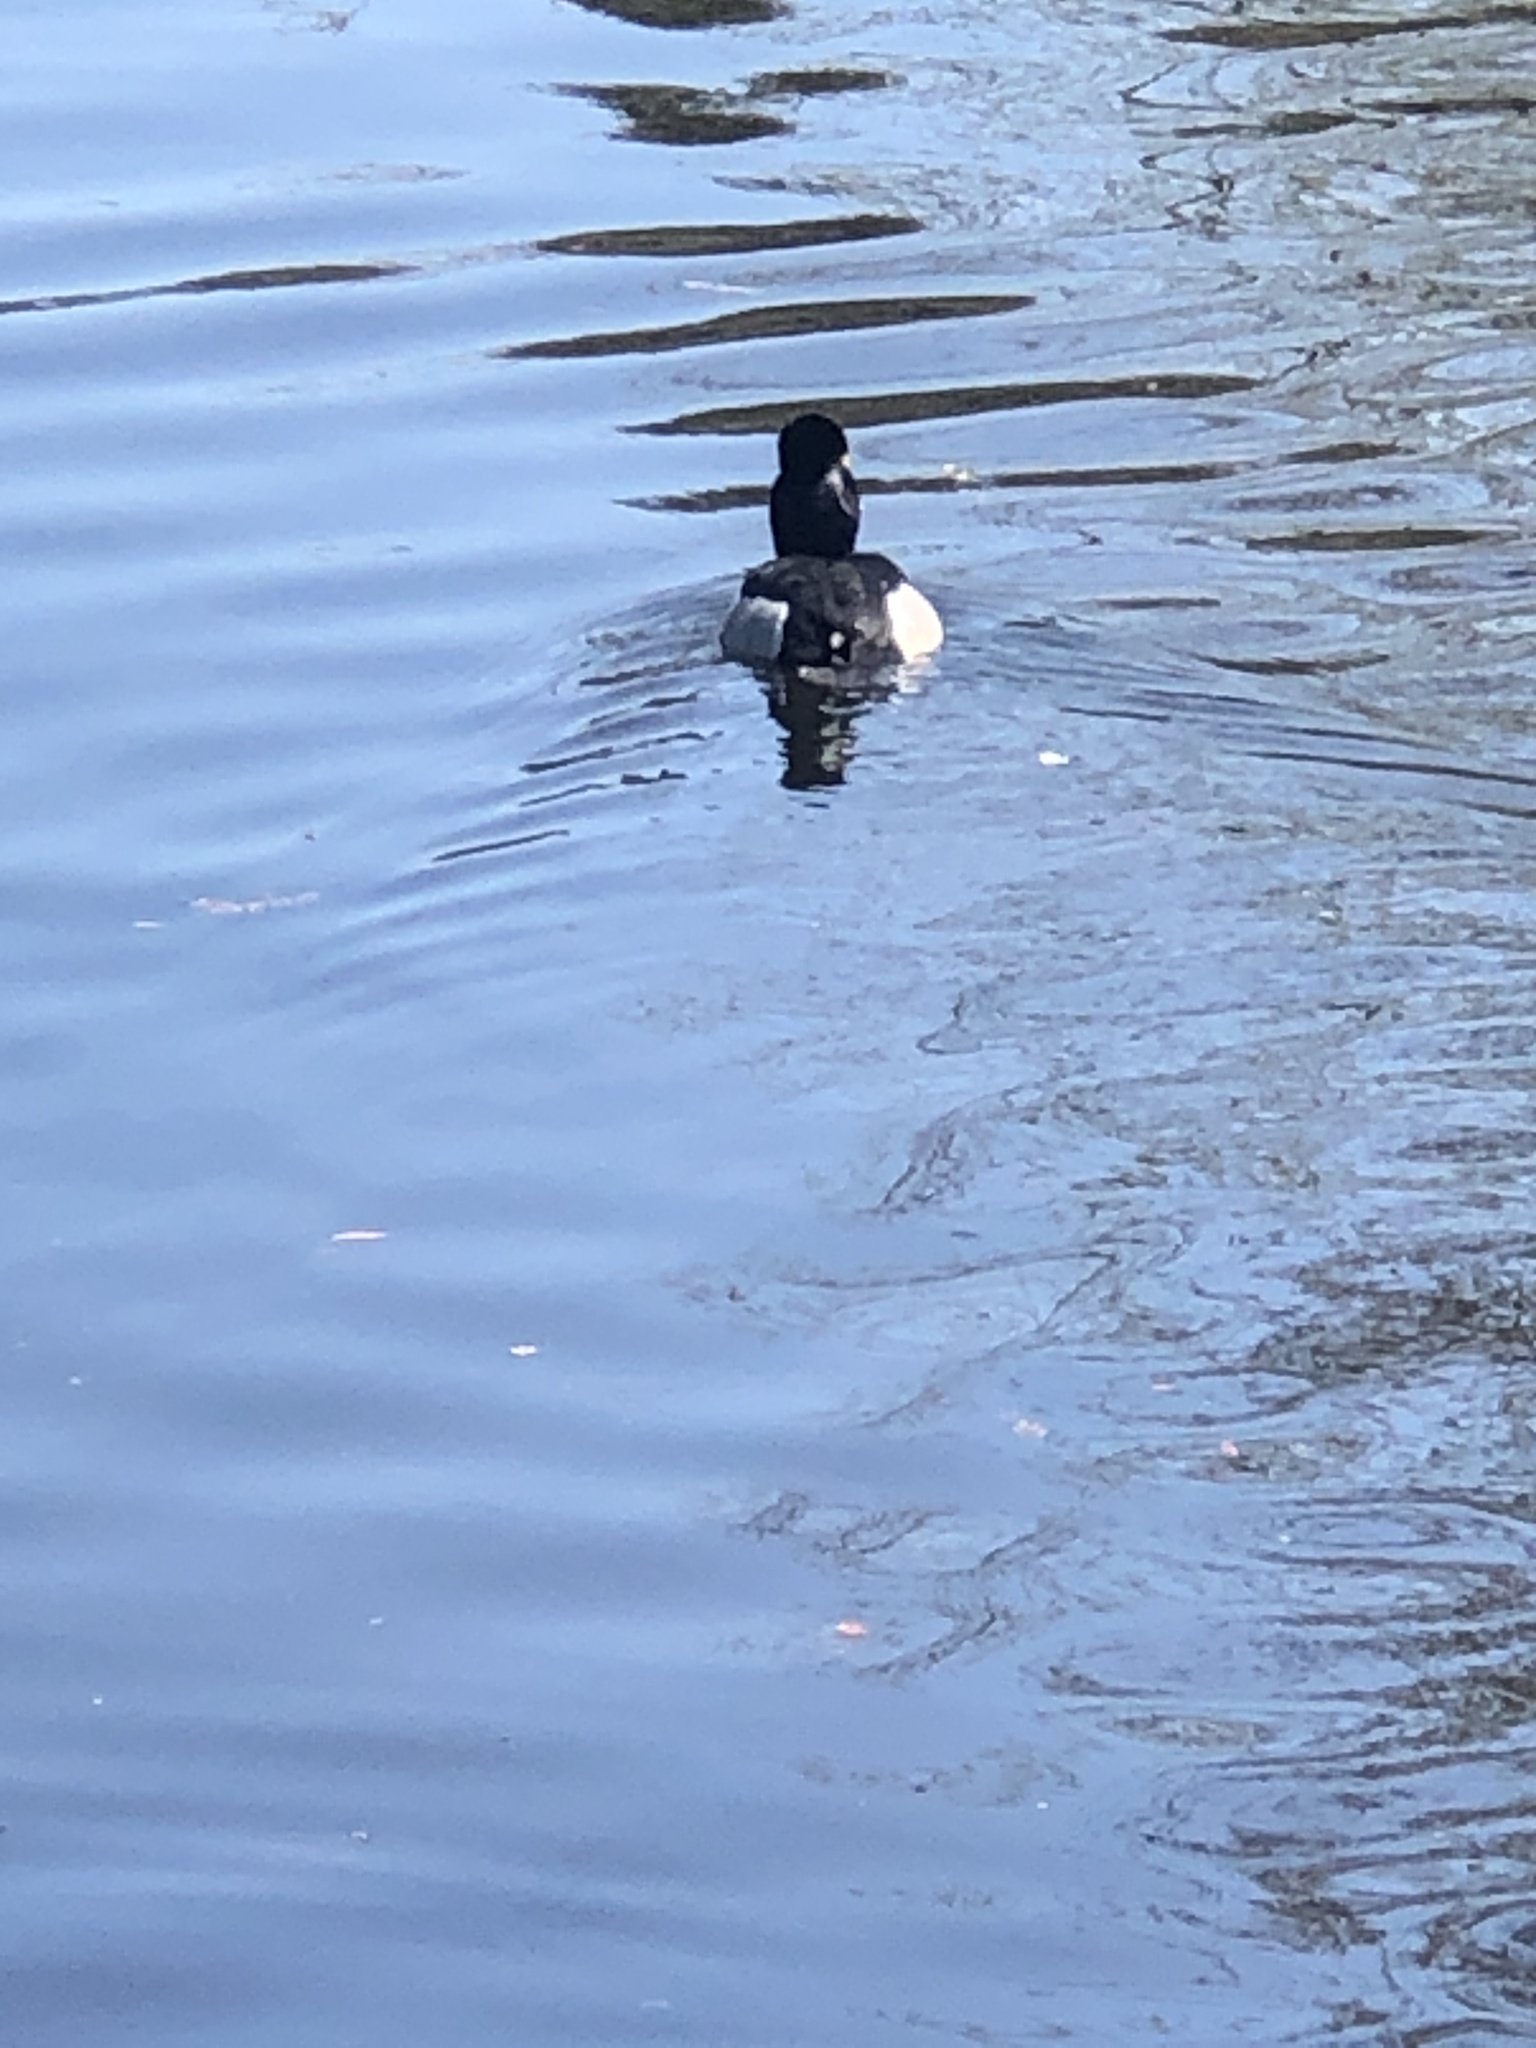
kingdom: Animalia
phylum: Chordata
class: Aves
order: Anseriformes
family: Anatidae
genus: Aythya
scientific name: Aythya collaris
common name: Ring-necked duck
